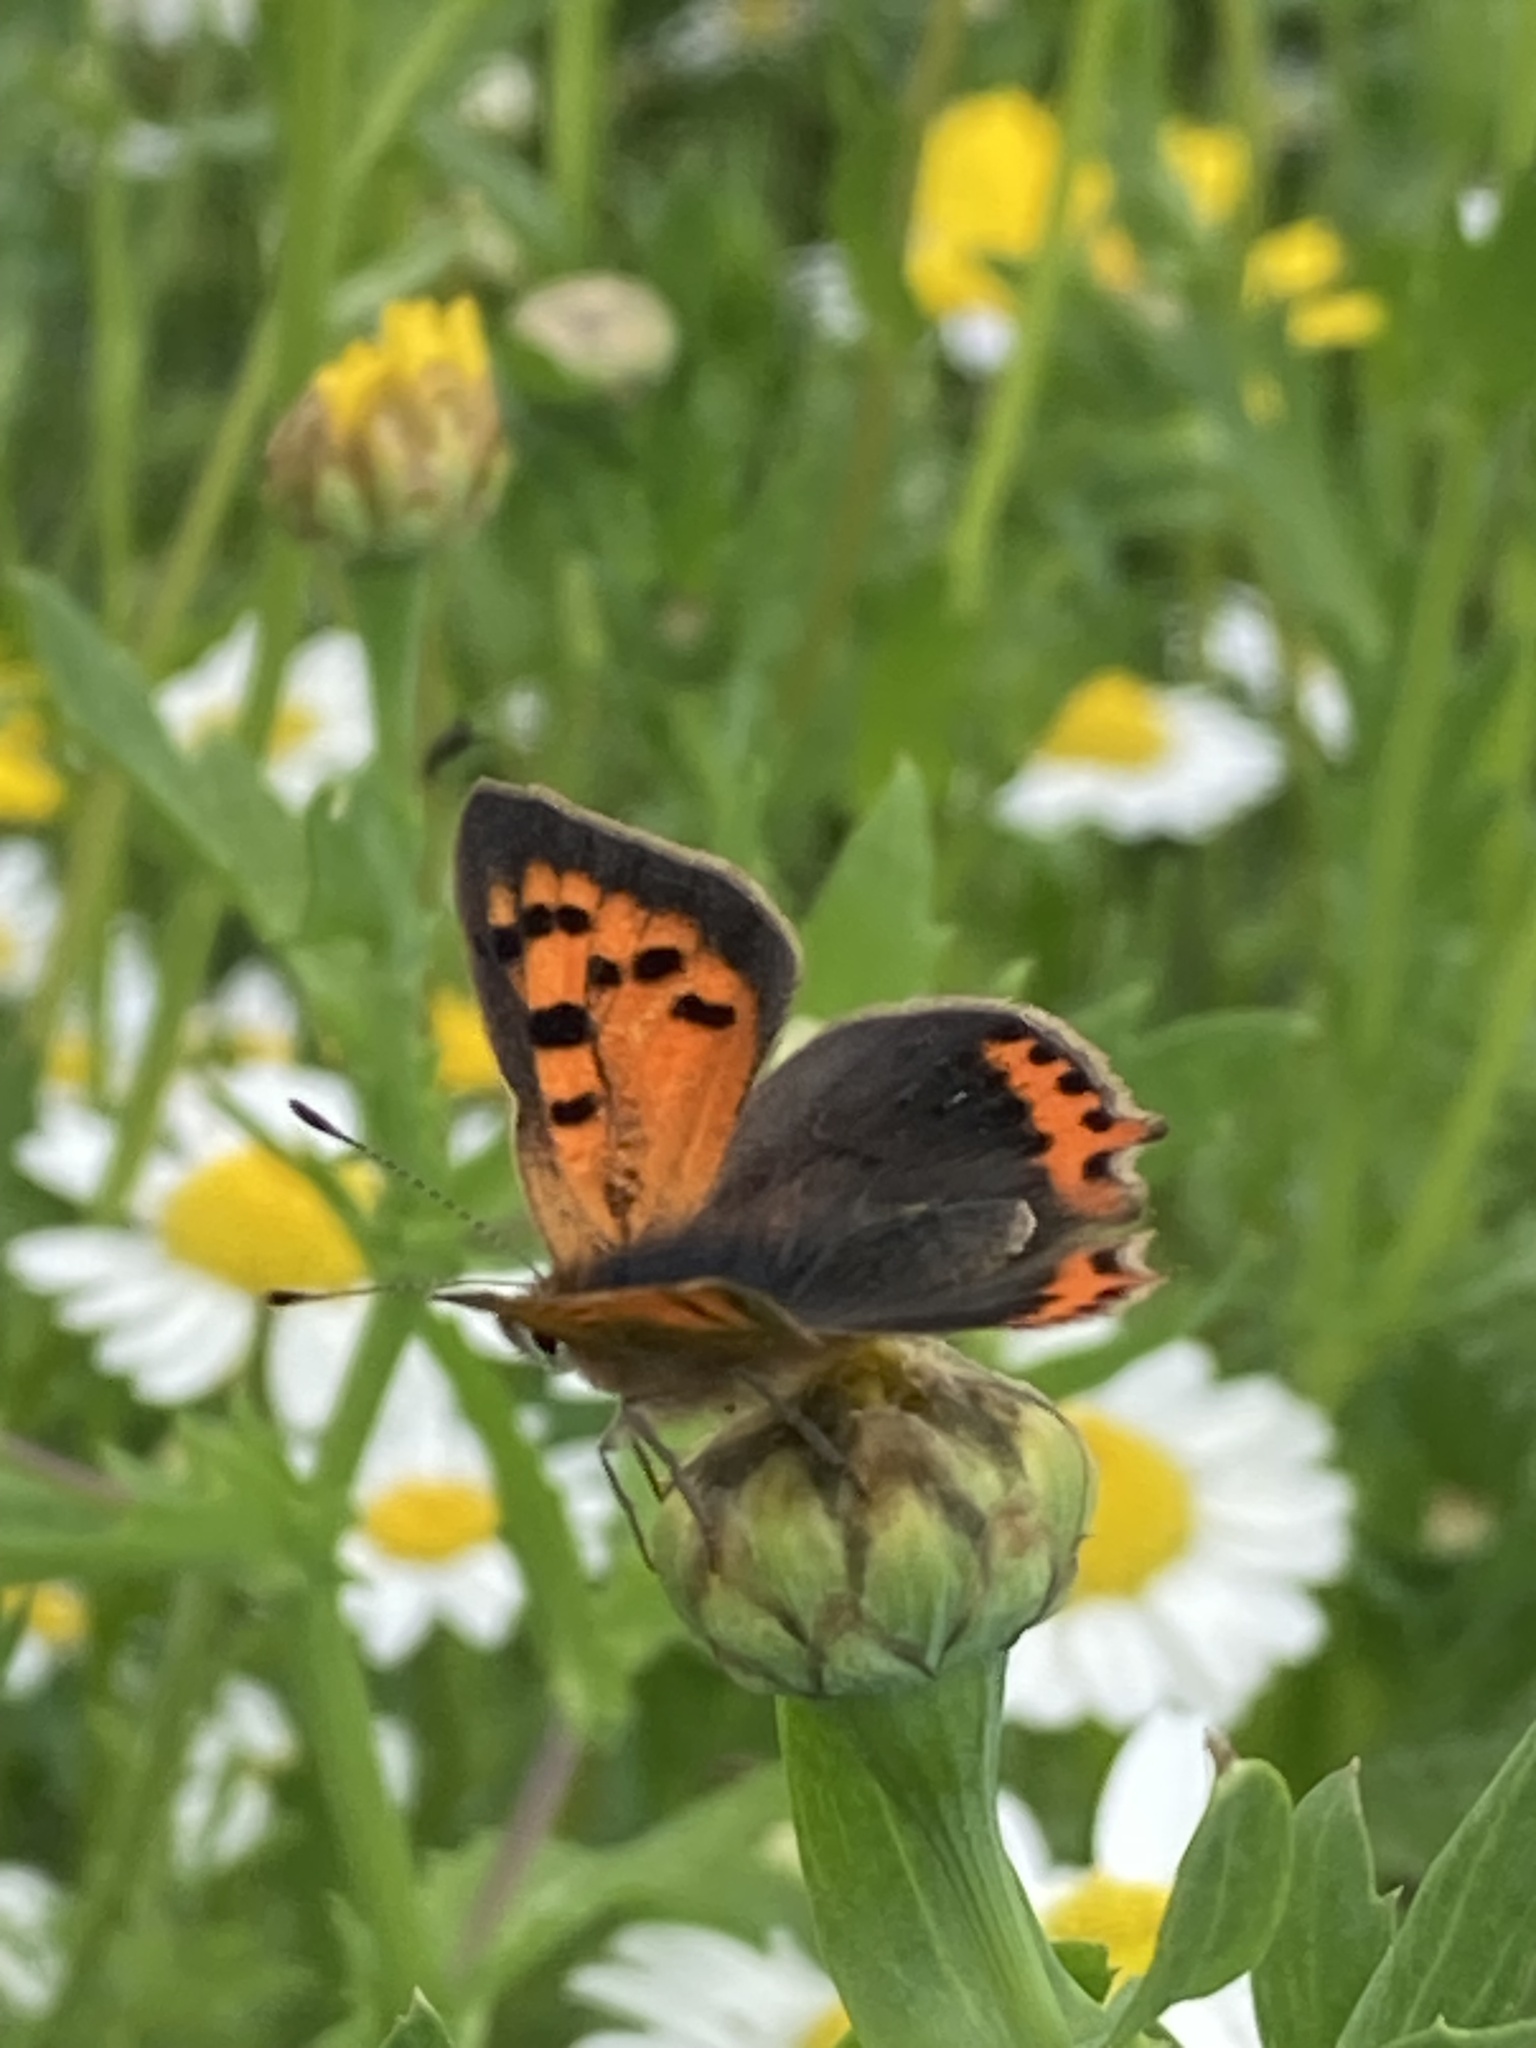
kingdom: Animalia
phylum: Arthropoda
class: Insecta
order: Lepidoptera
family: Lycaenidae
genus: Lycaena
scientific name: Lycaena phlaeas
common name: Small copper
